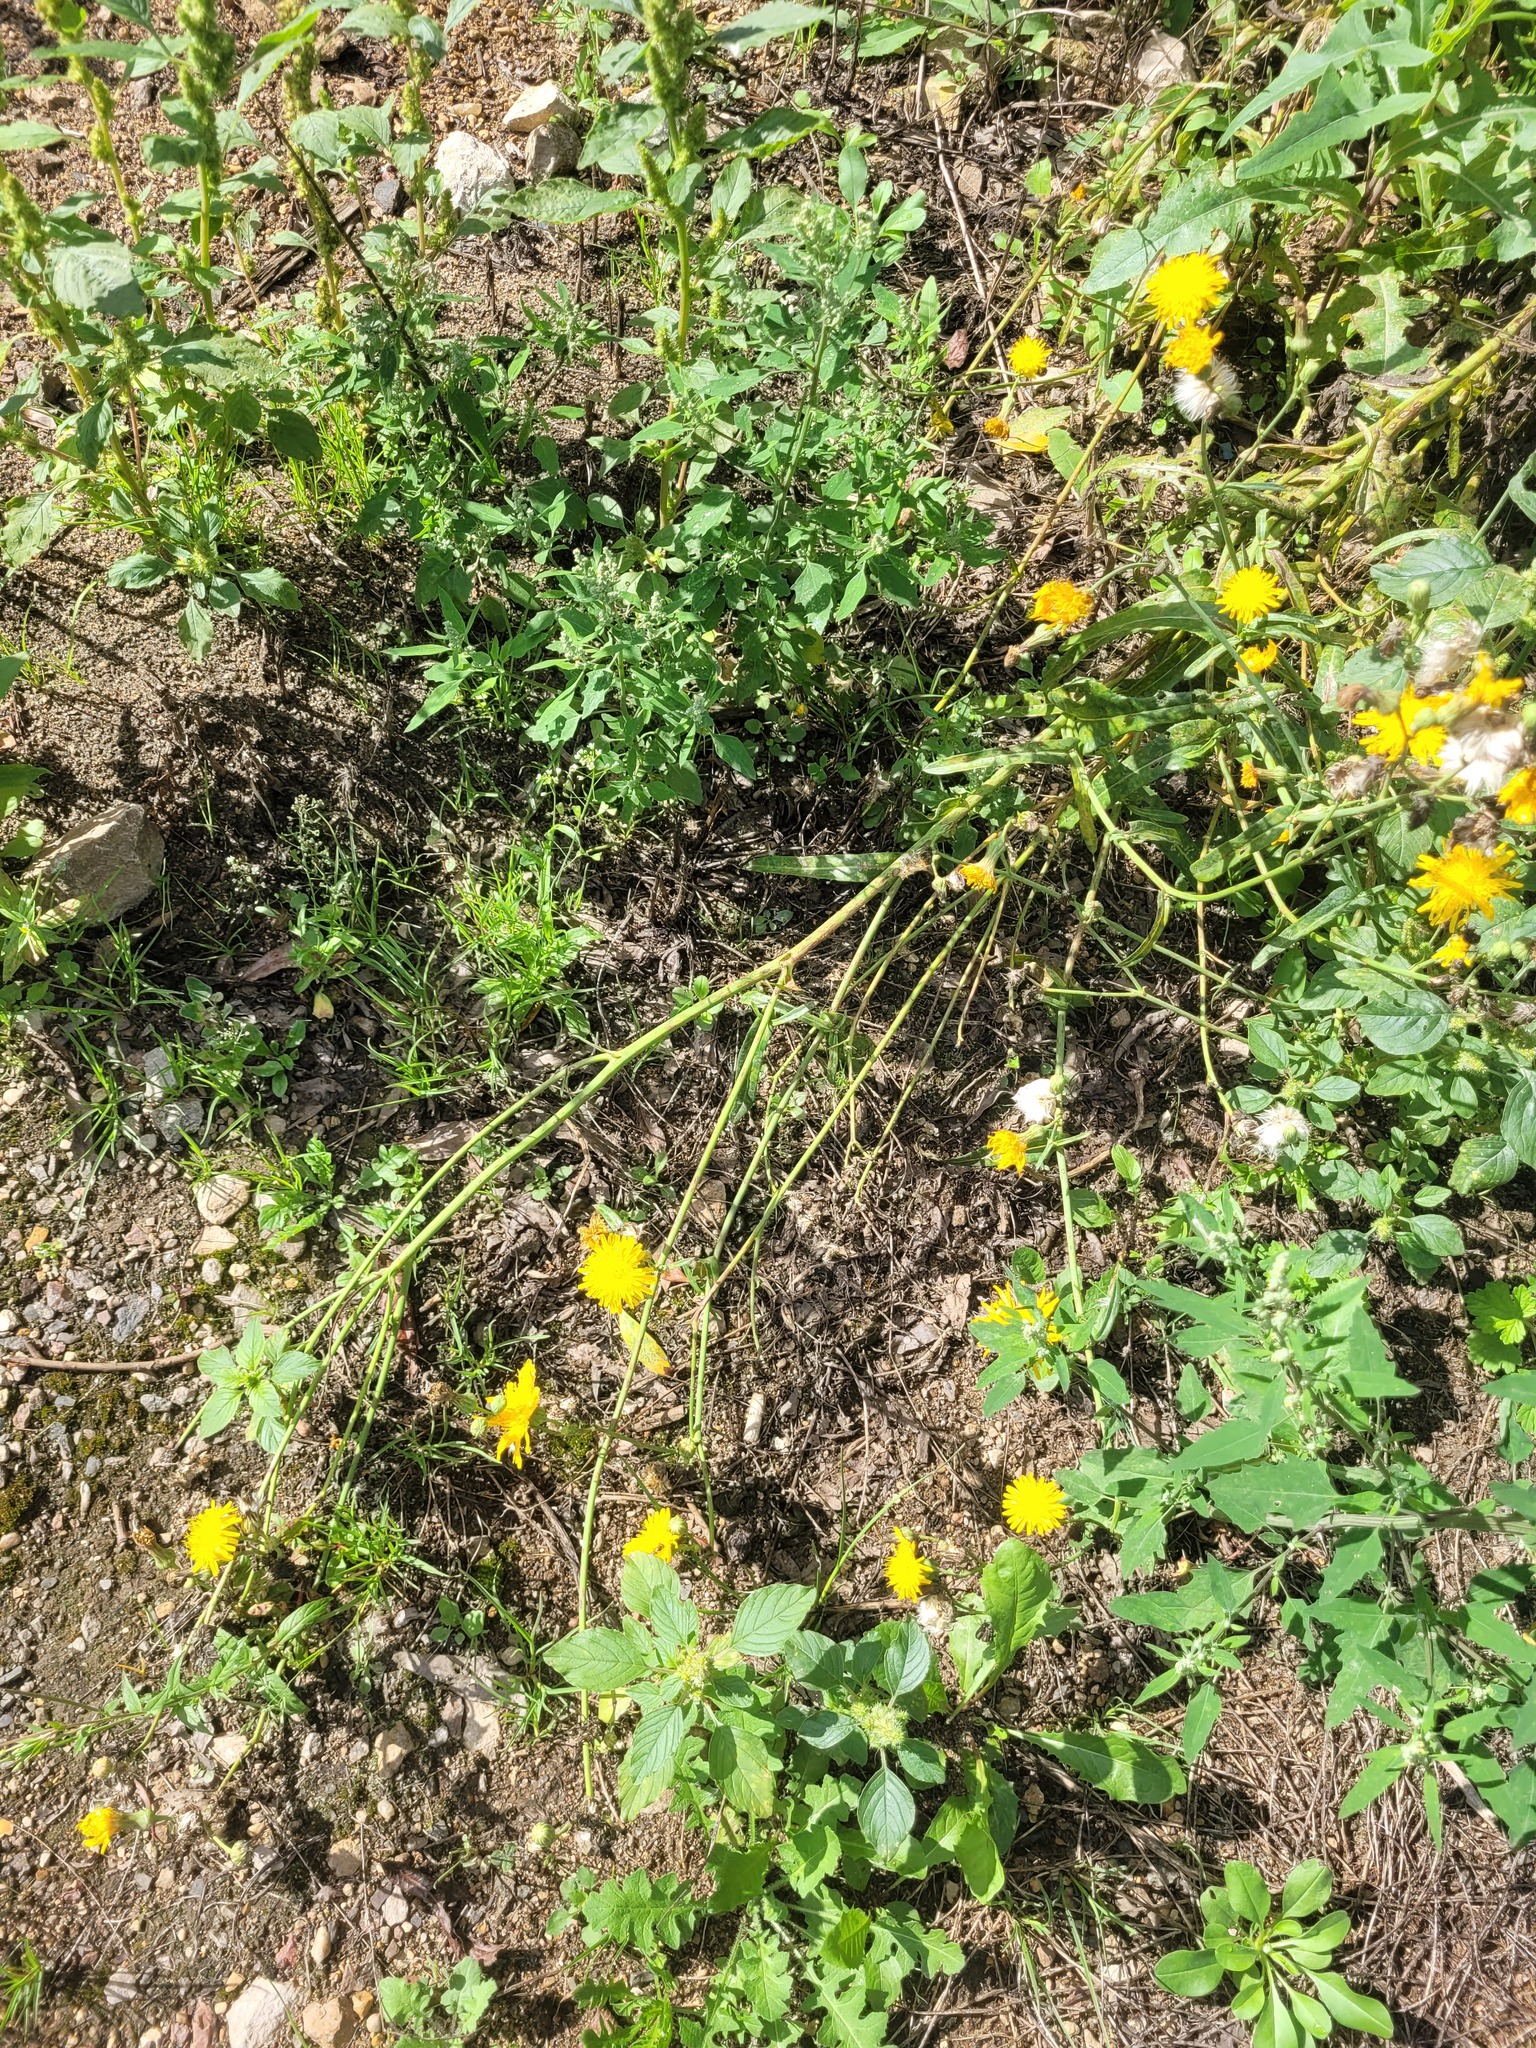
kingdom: Plantae
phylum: Tracheophyta
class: Magnoliopsida
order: Asterales
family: Asteraceae
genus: Sonchus
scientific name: Sonchus arvensis
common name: Perennial sow-thistle
